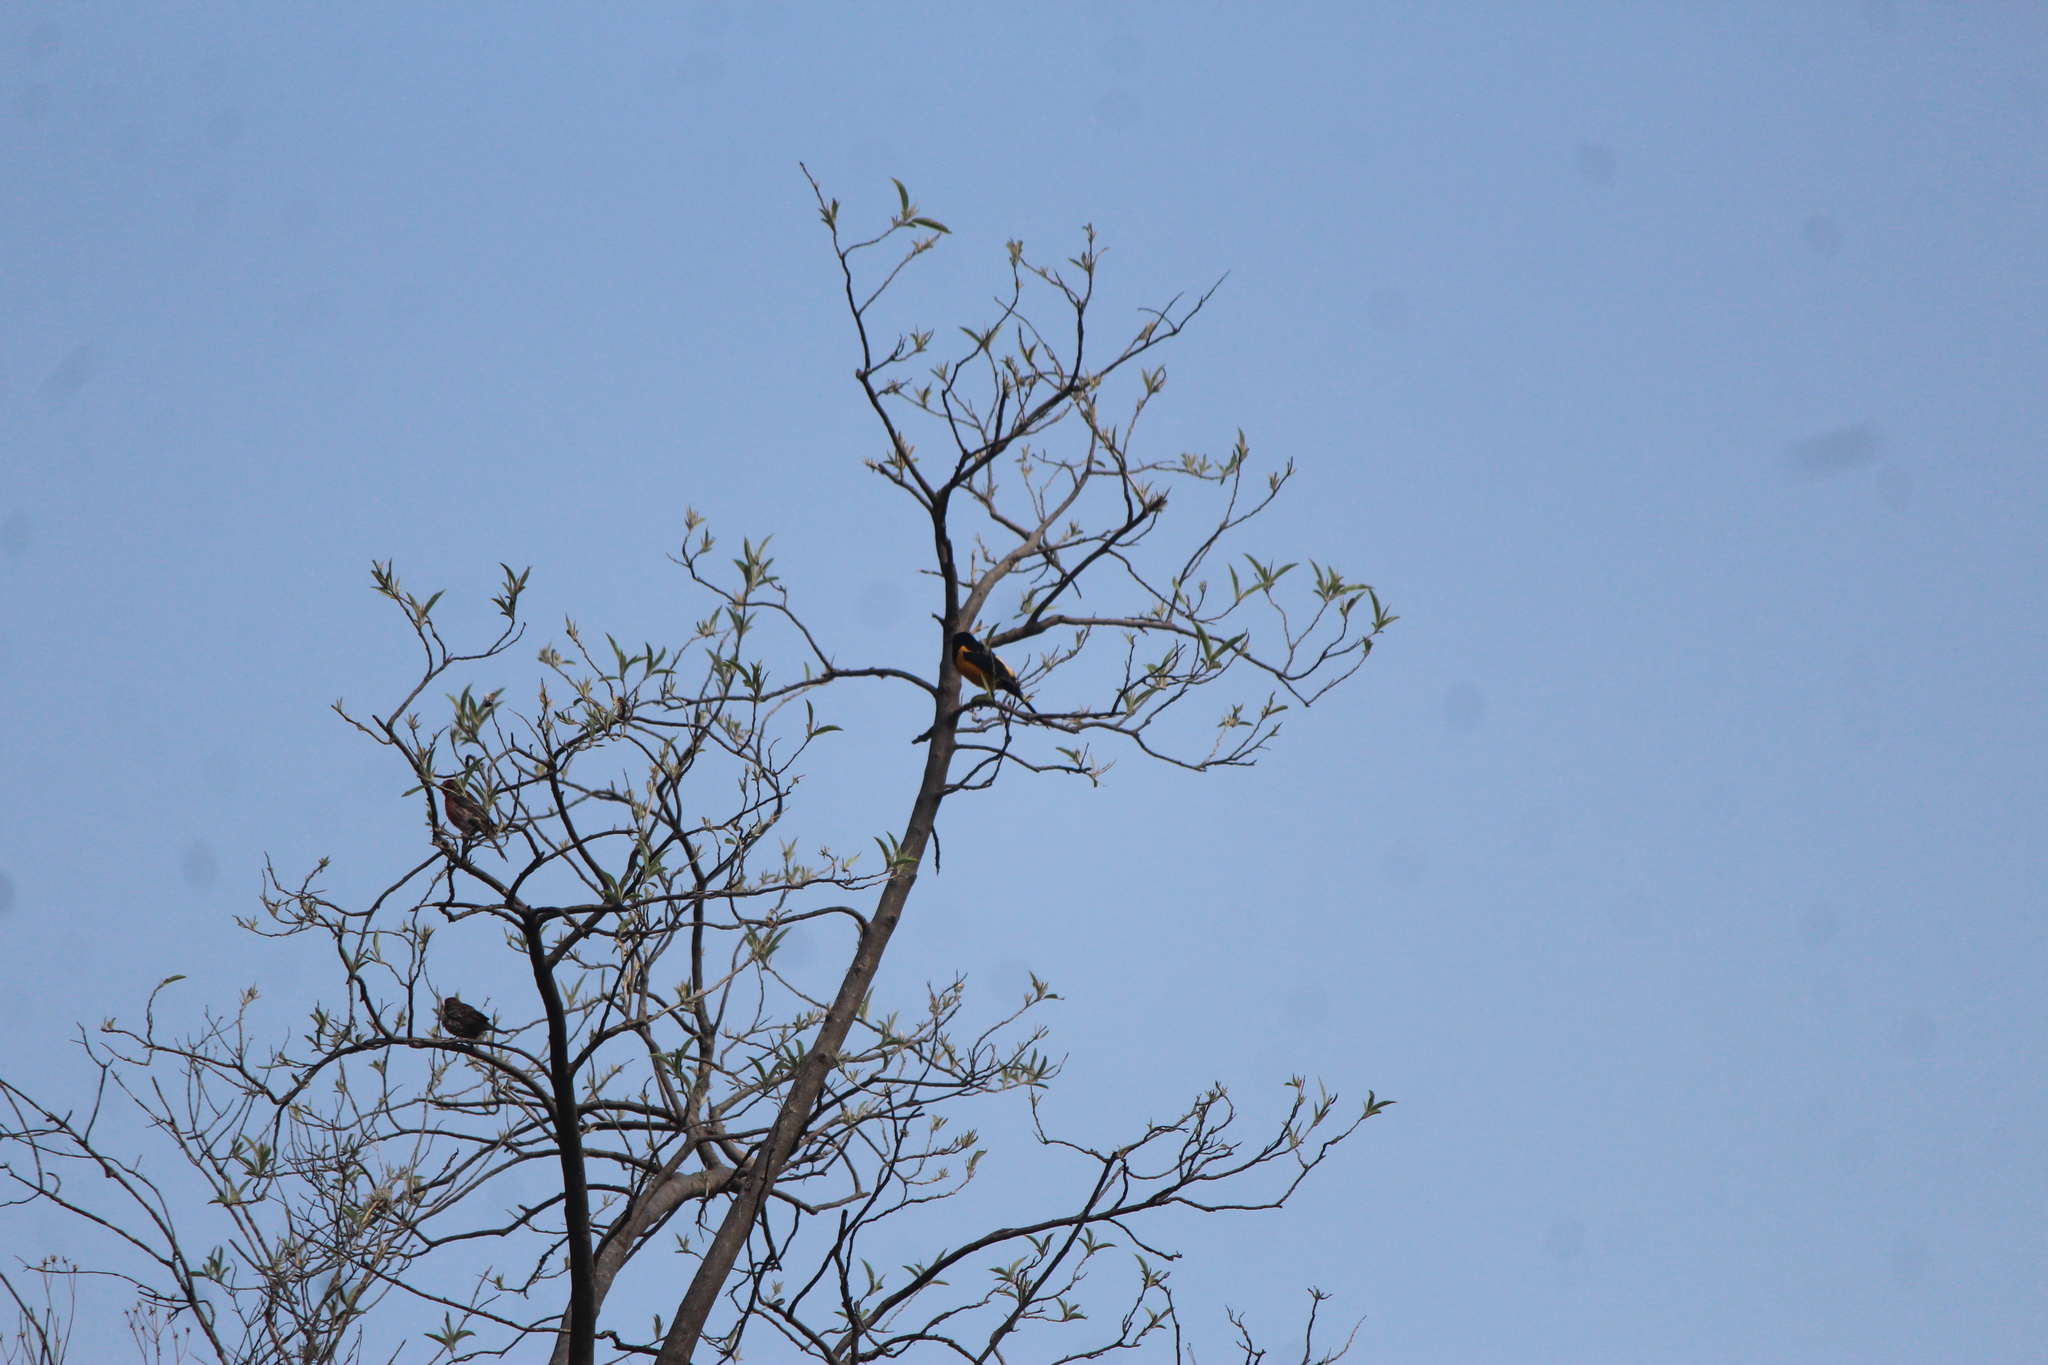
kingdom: Animalia
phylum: Chordata
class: Aves
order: Passeriformes
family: Icteridae
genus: Icterus
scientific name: Icterus wagleri
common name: Black-vented oriole
